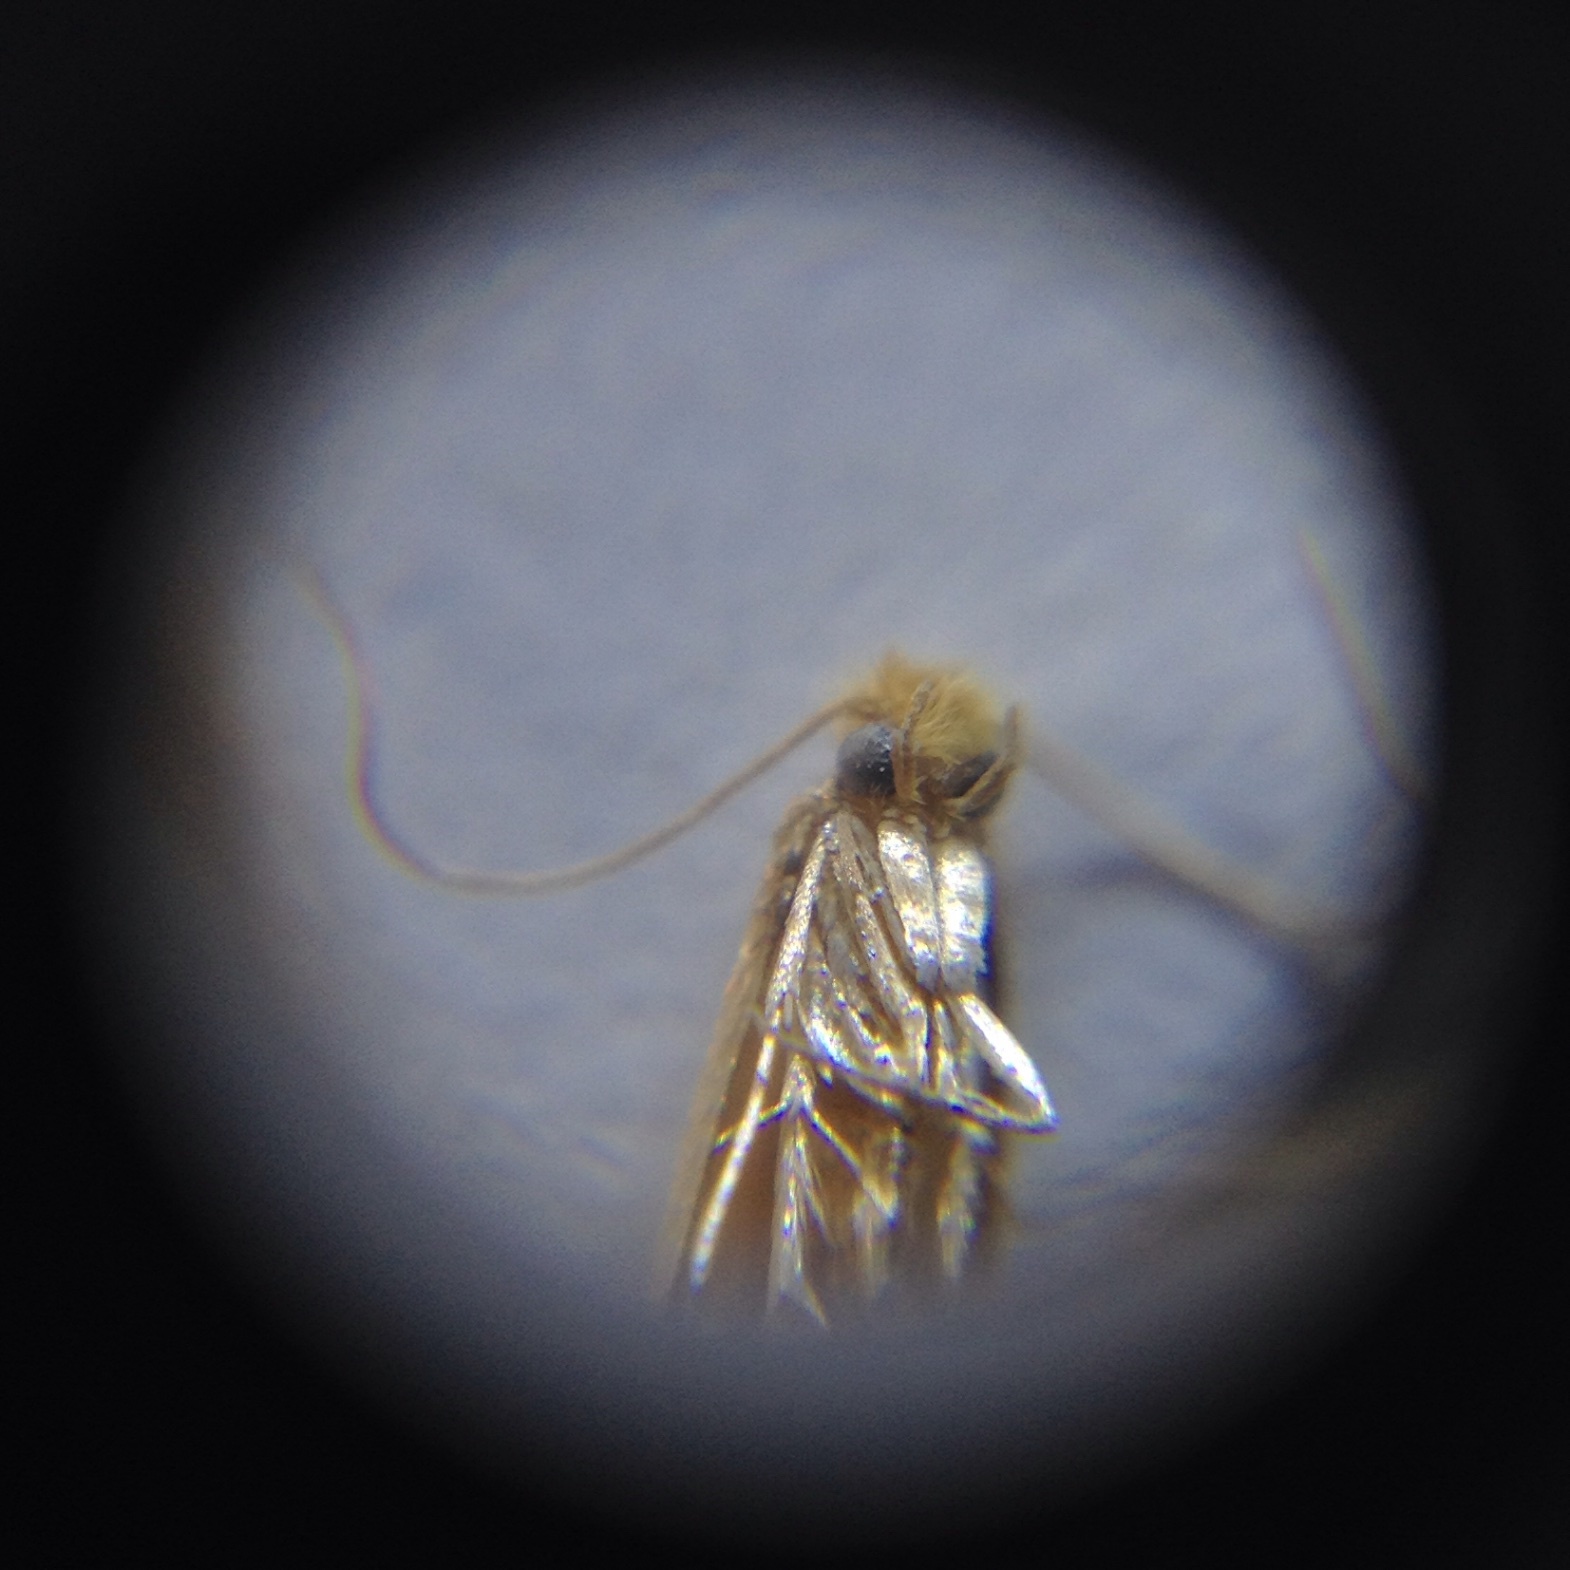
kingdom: Animalia
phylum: Arthropoda
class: Insecta
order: Lepidoptera
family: Tineidae
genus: Tineola
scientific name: Tineola bisselliella
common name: Webbing clothes moth
